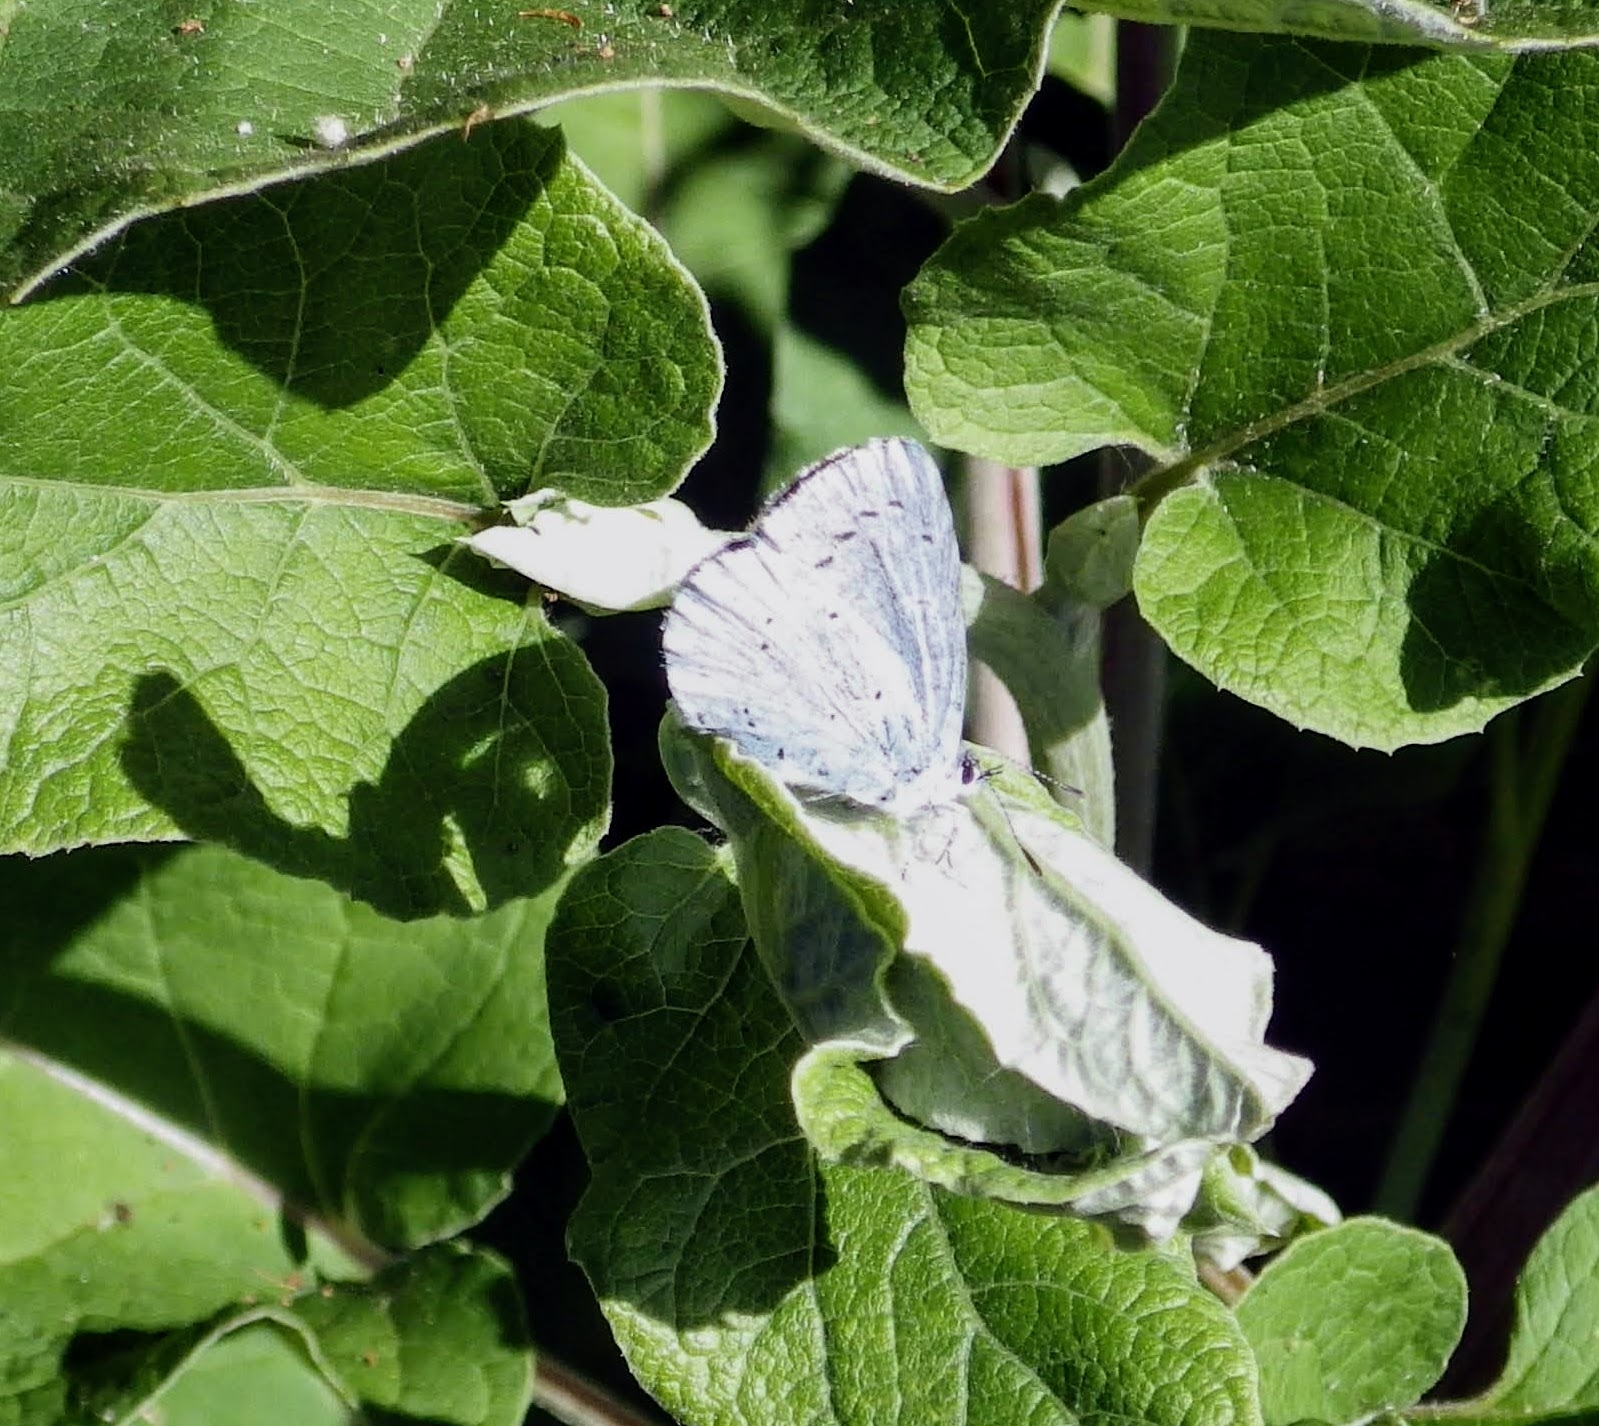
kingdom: Animalia
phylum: Arthropoda
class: Insecta
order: Lepidoptera
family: Lycaenidae
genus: Celastrina
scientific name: Celastrina argiolus
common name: Holly blue
